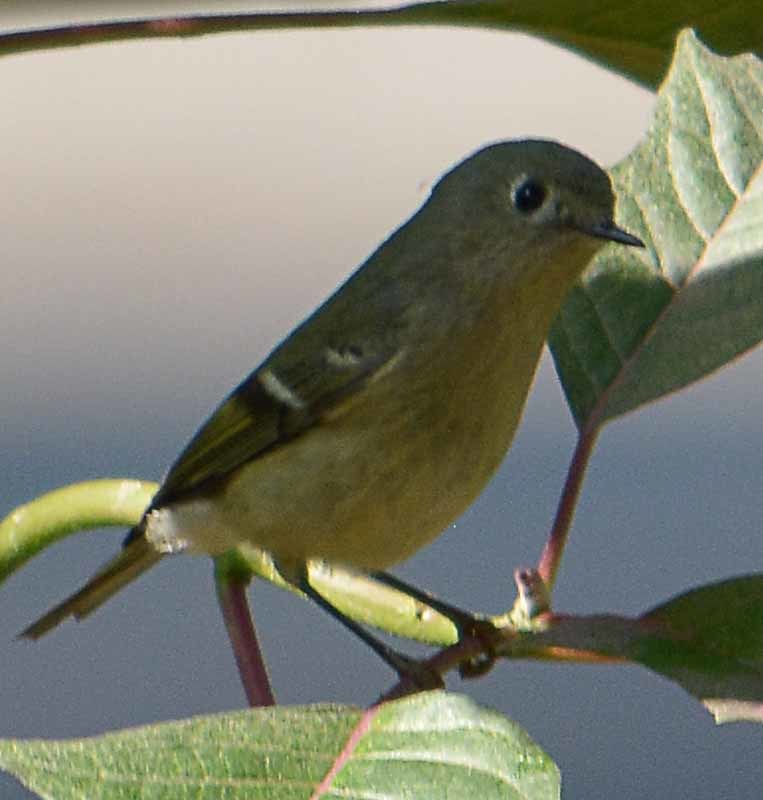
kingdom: Animalia
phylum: Chordata
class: Aves
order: Passeriformes
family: Regulidae
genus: Regulus
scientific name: Regulus calendula
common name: Ruby-crowned kinglet
